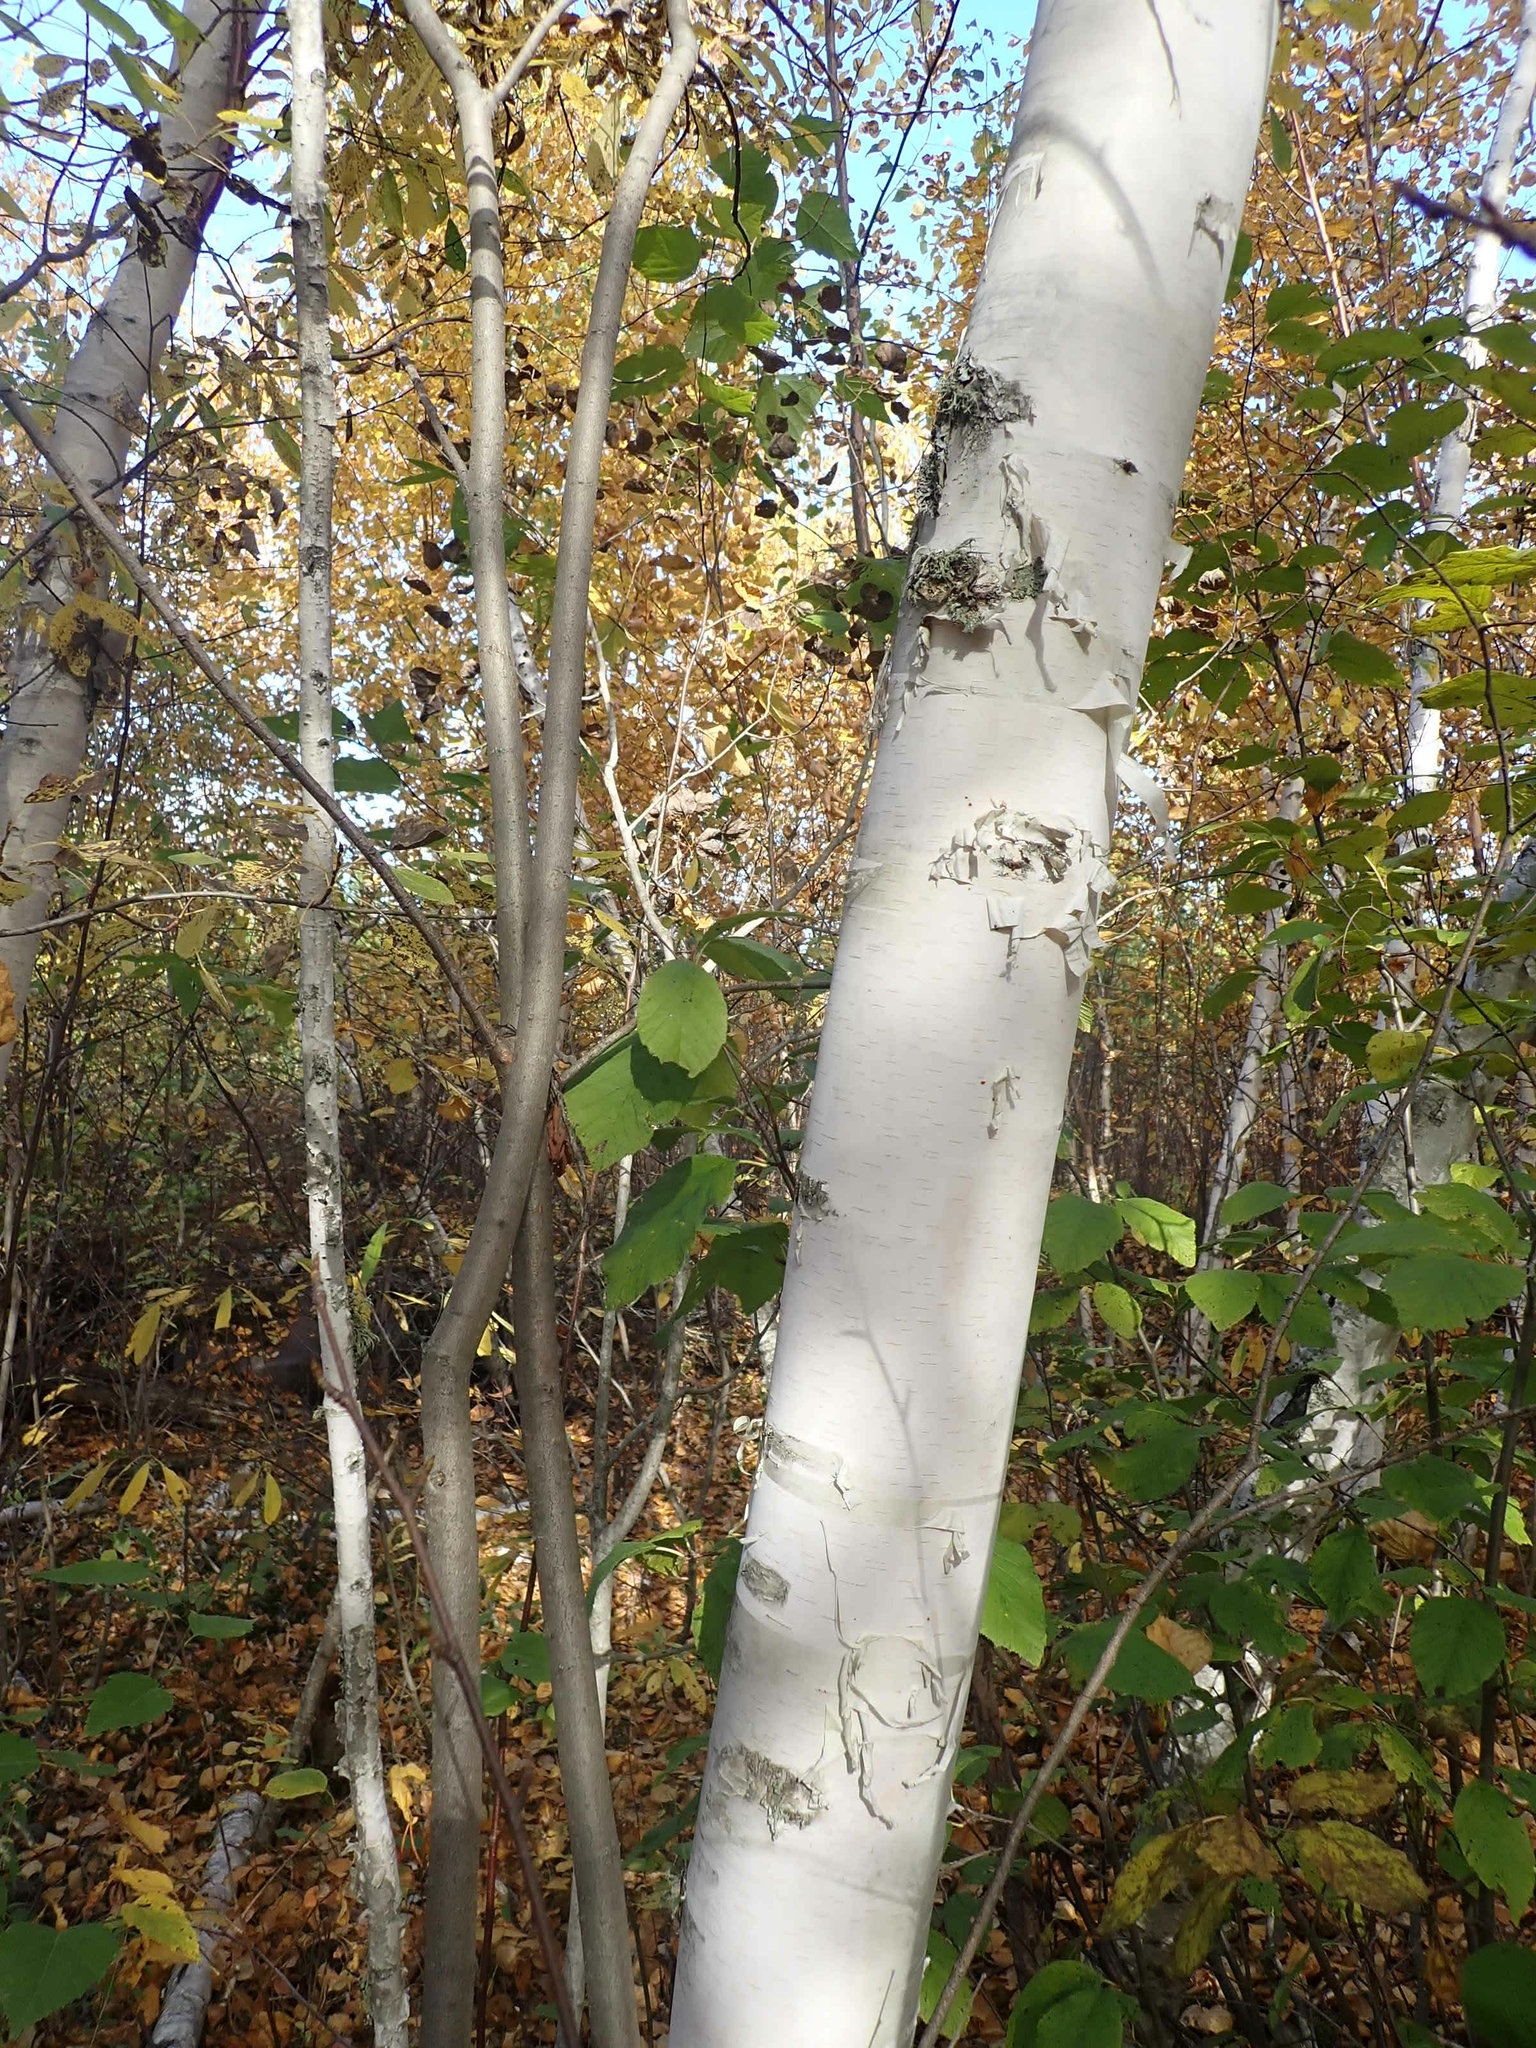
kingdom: Plantae
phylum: Tracheophyta
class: Magnoliopsida
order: Fagales
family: Betulaceae
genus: Betula
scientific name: Betula papyrifera
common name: Paper birch
